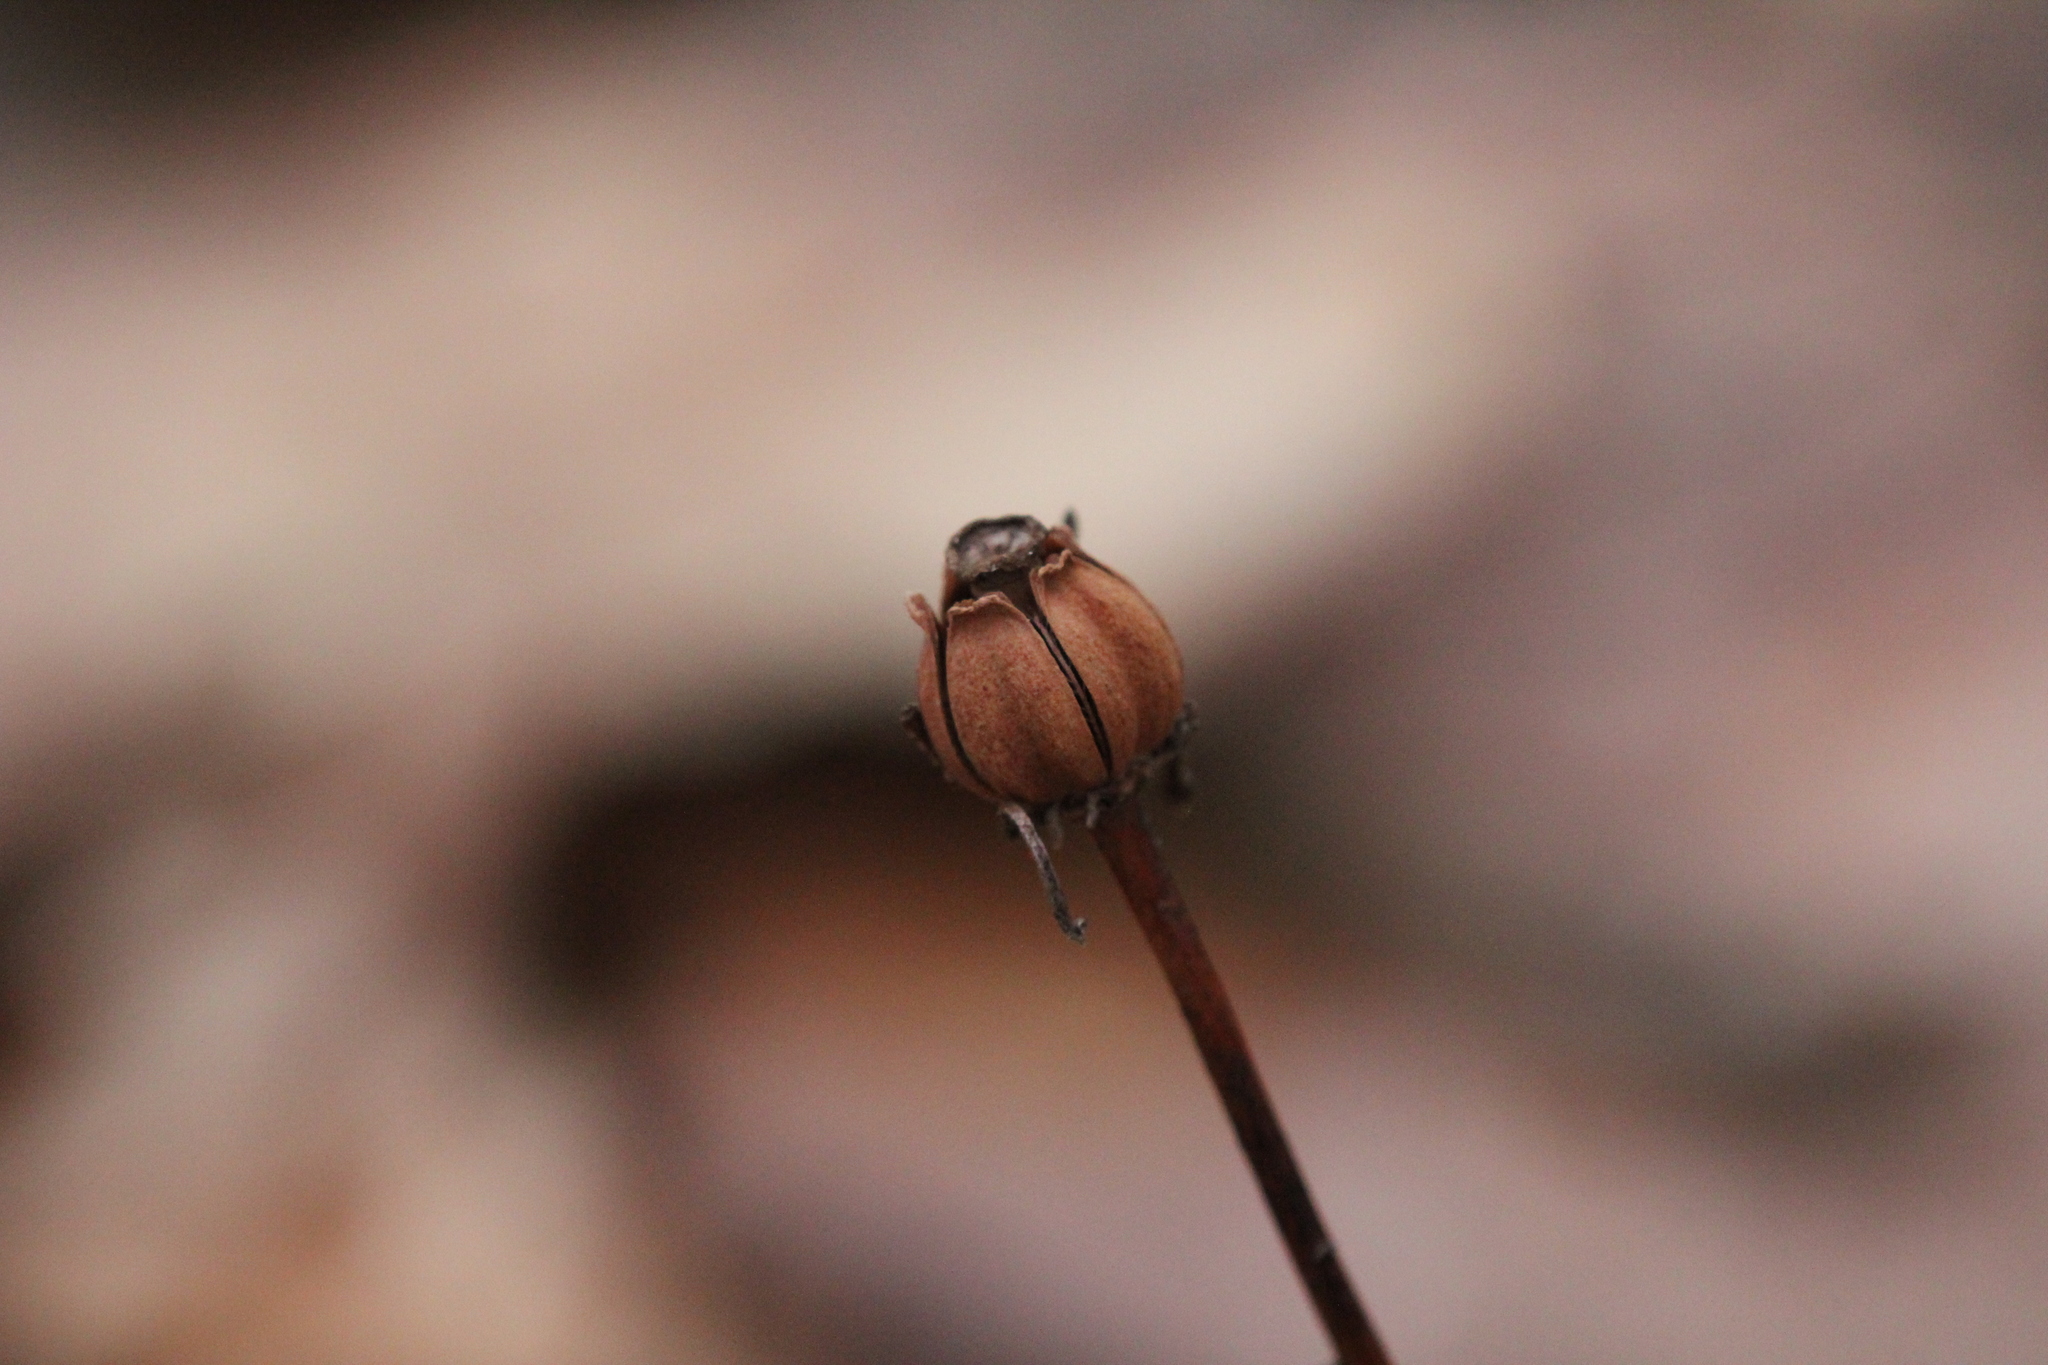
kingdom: Plantae
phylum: Tracheophyta
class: Magnoliopsida
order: Ericales
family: Ericaceae
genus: Monotropa
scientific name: Monotropa uniflora
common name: Convulsion root
